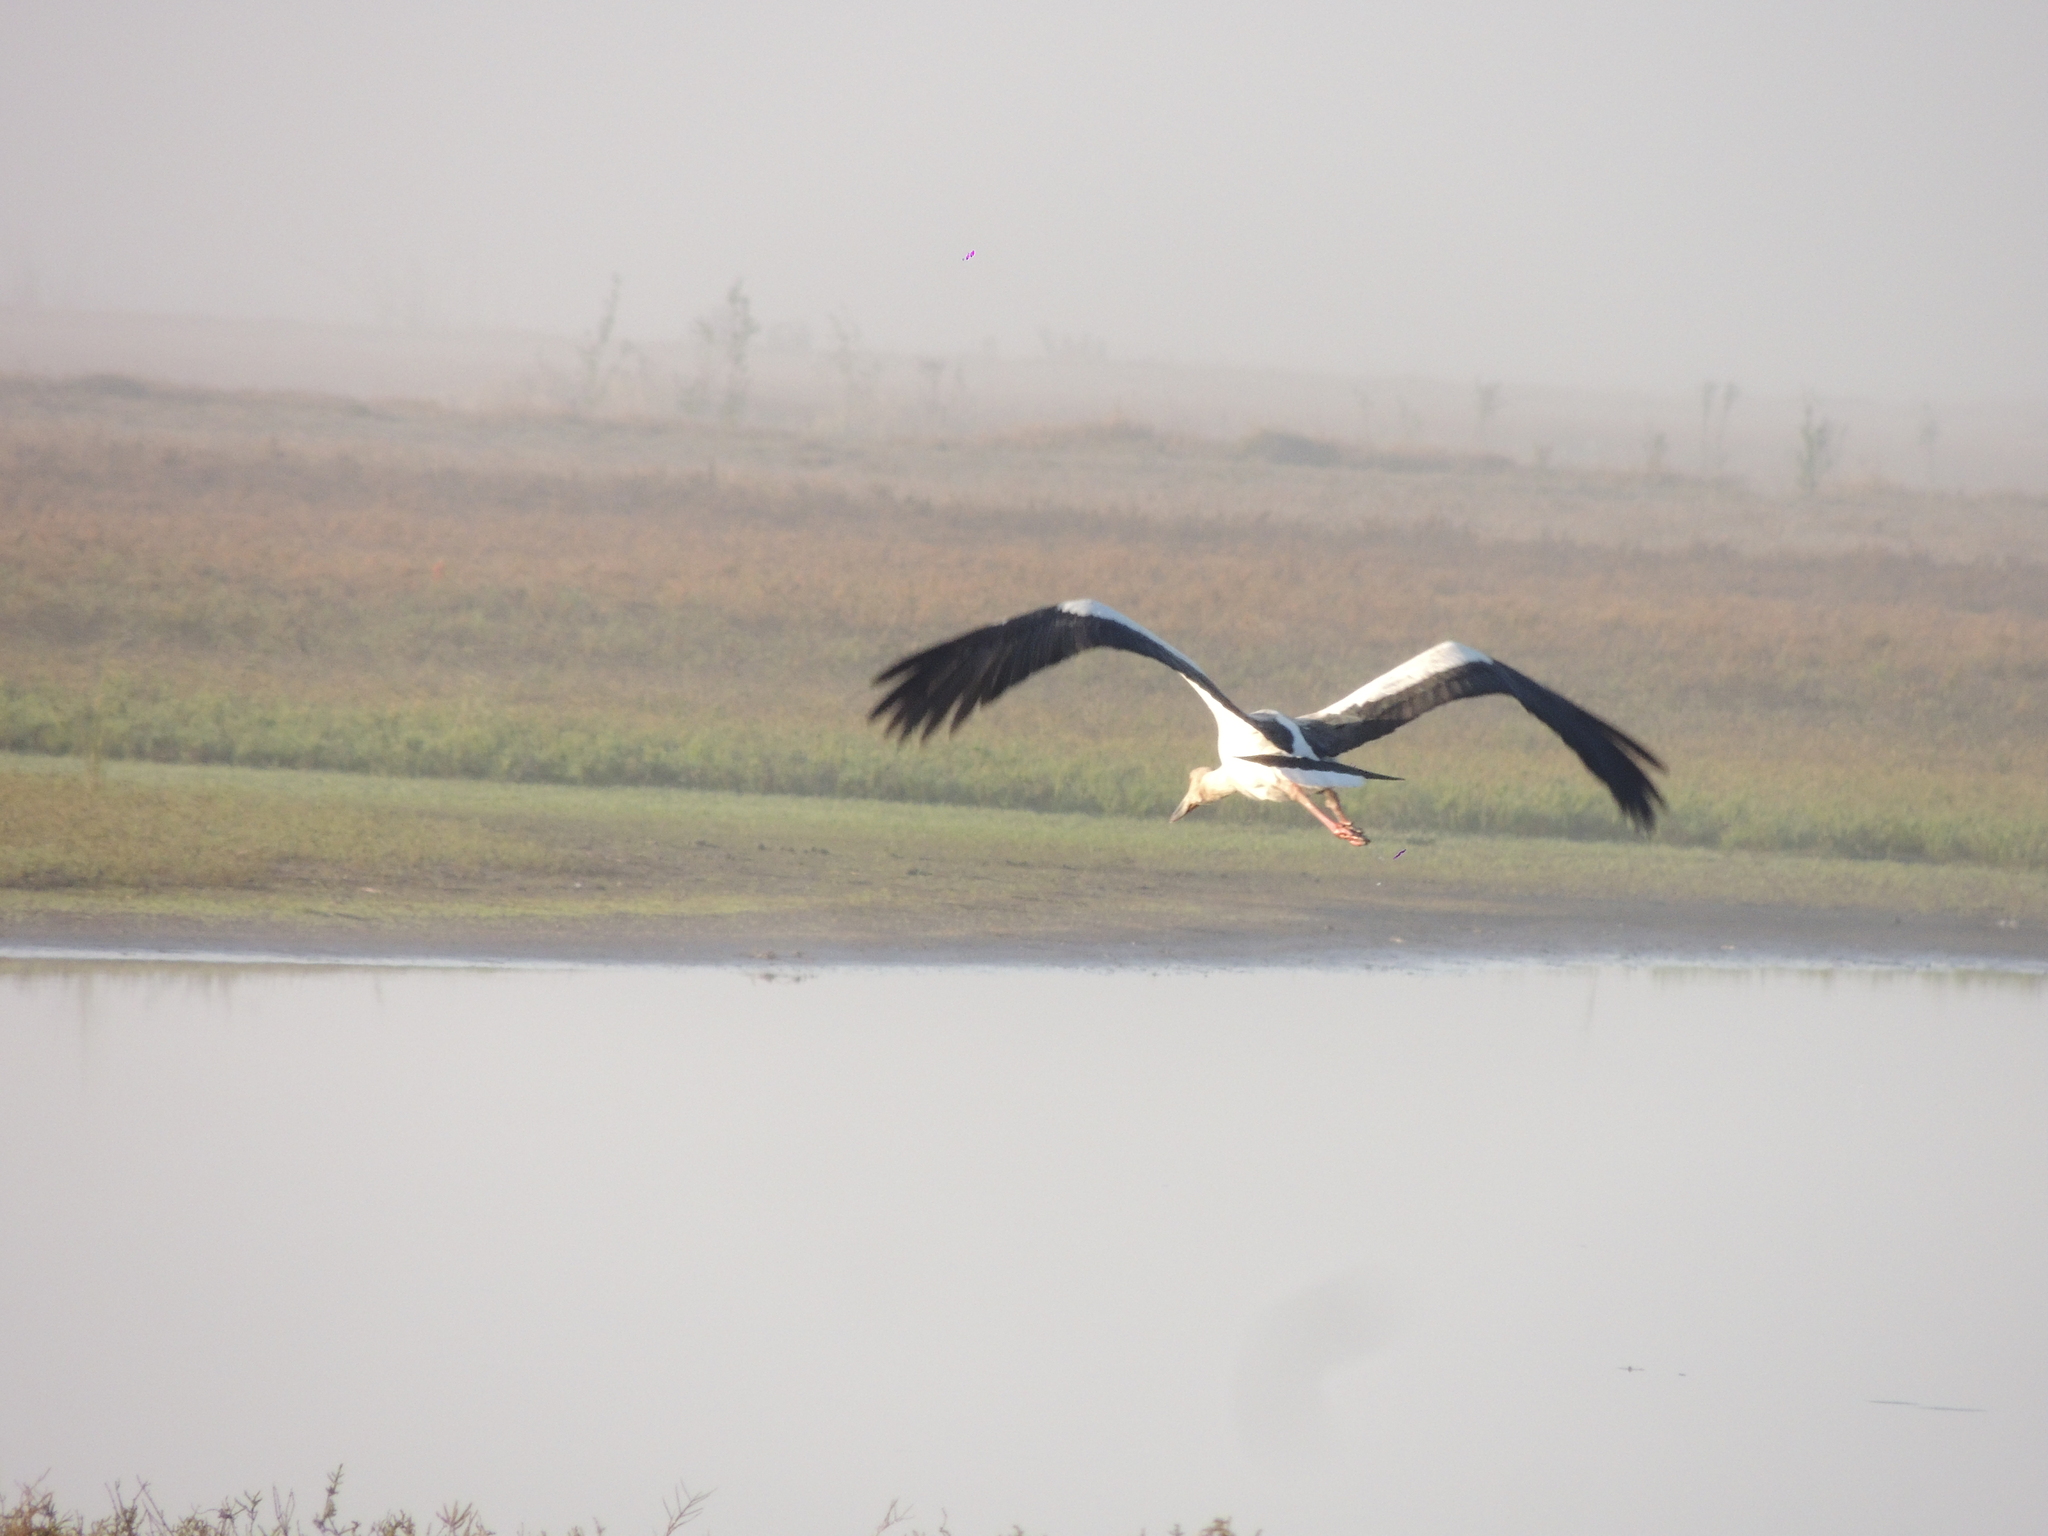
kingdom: Animalia
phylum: Chordata
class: Aves
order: Ciconiiformes
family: Ciconiidae
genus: Ciconia
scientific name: Ciconia maguari
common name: Maguari stork
